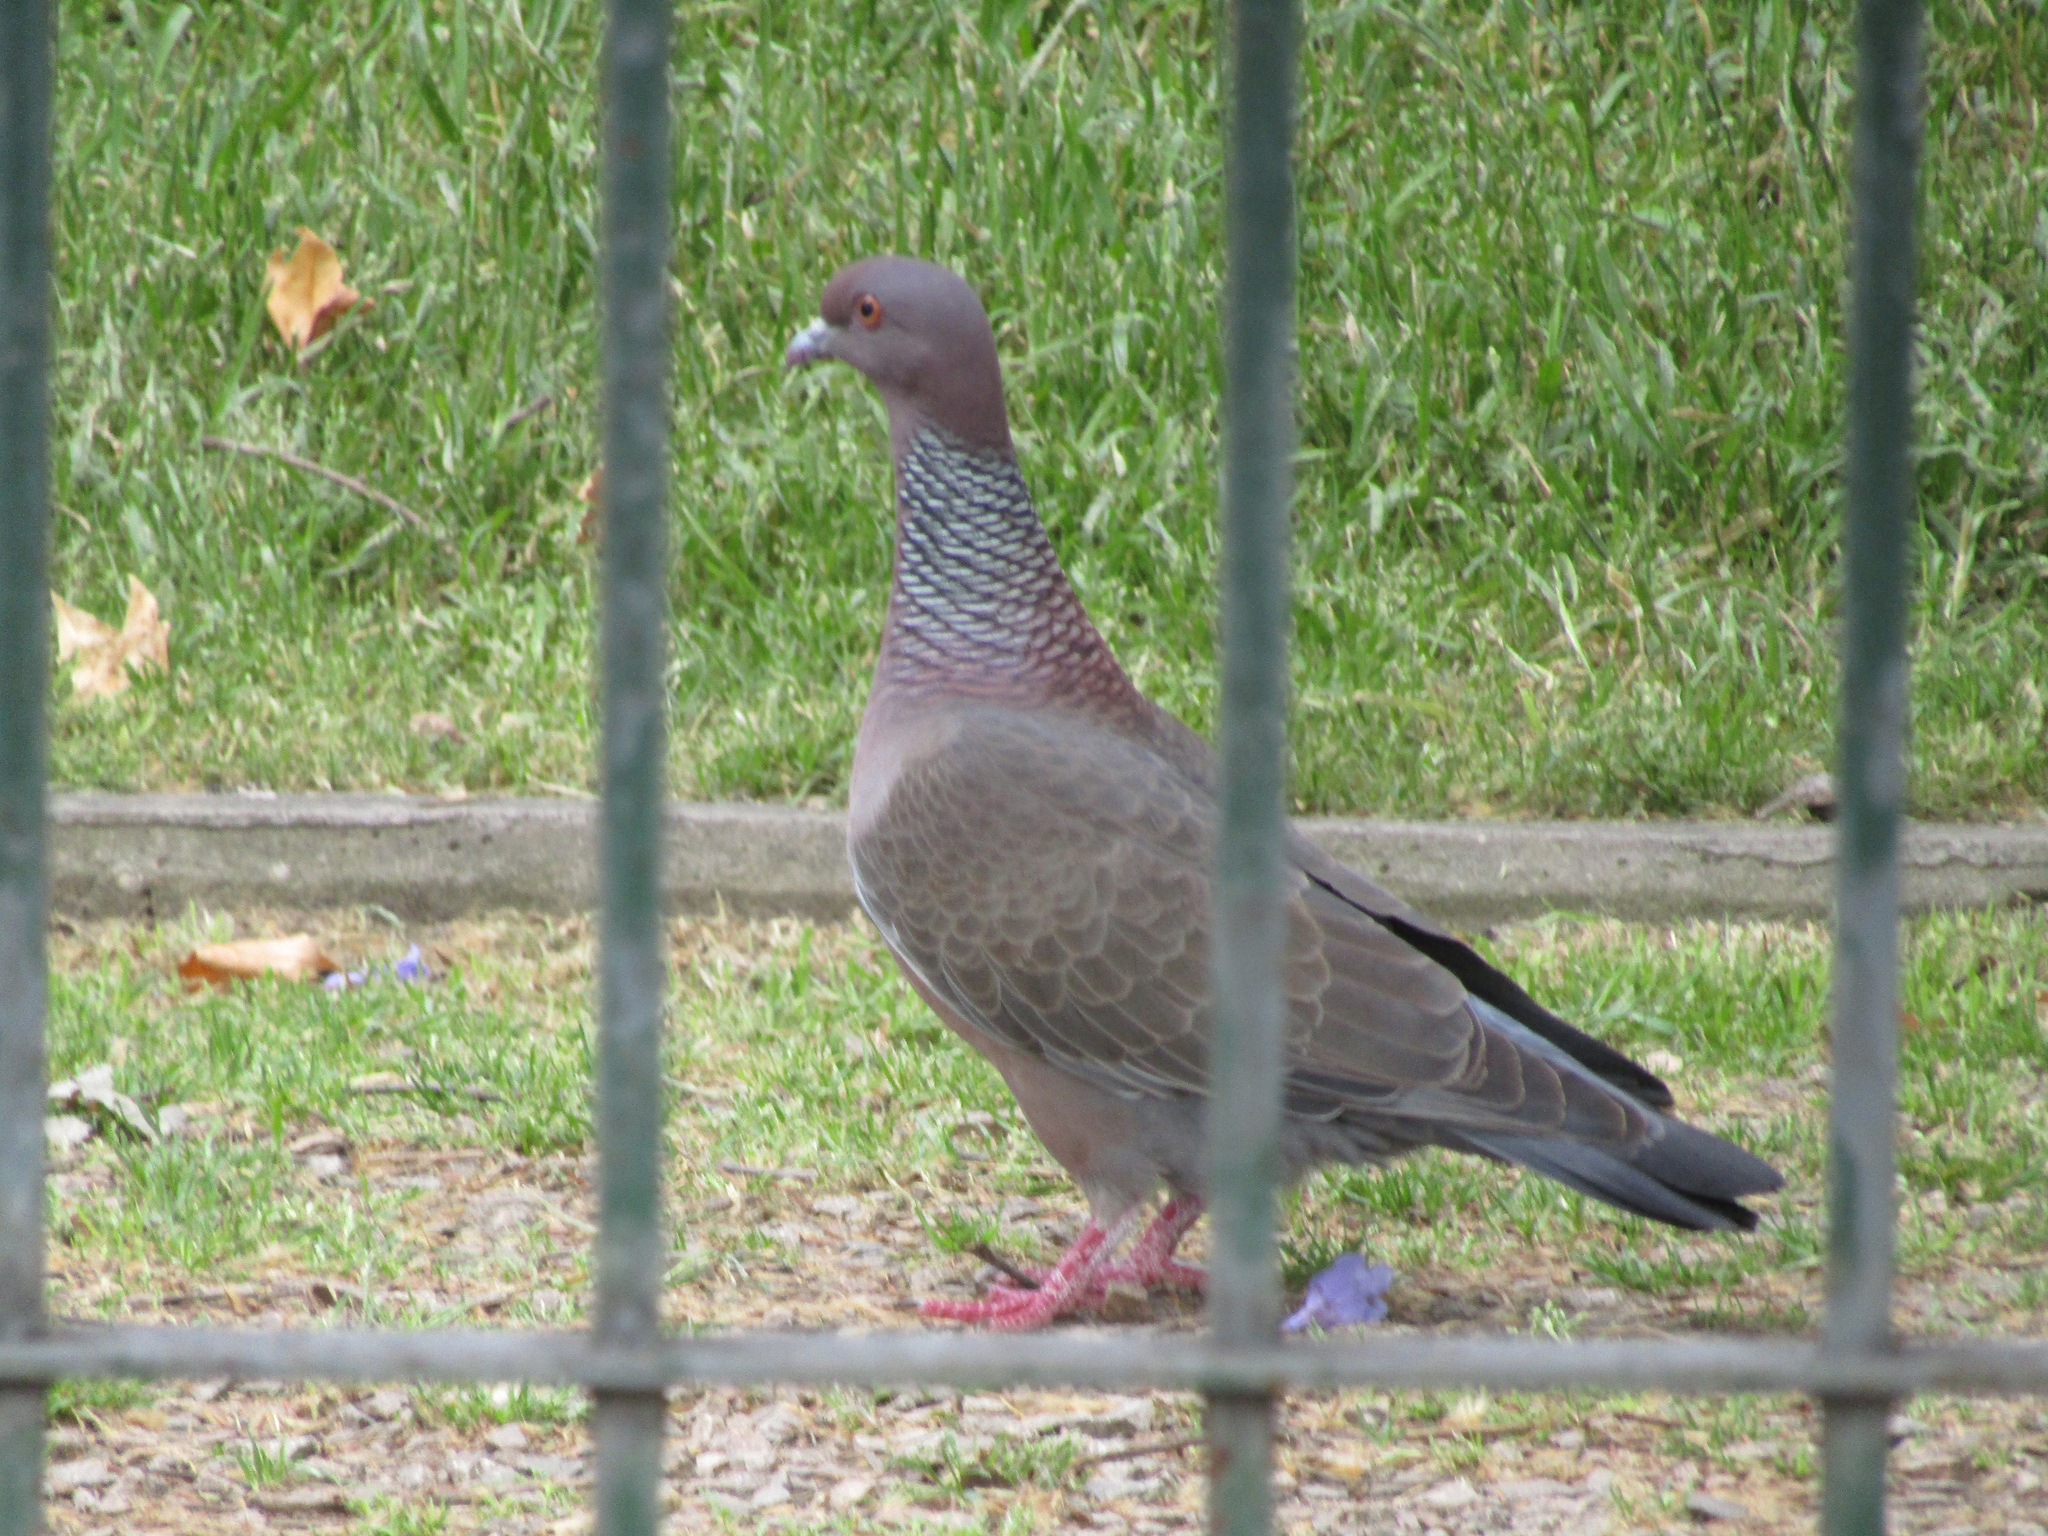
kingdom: Animalia
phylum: Chordata
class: Aves
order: Columbiformes
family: Columbidae
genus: Patagioenas
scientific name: Patagioenas picazuro
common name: Picazuro pigeon
